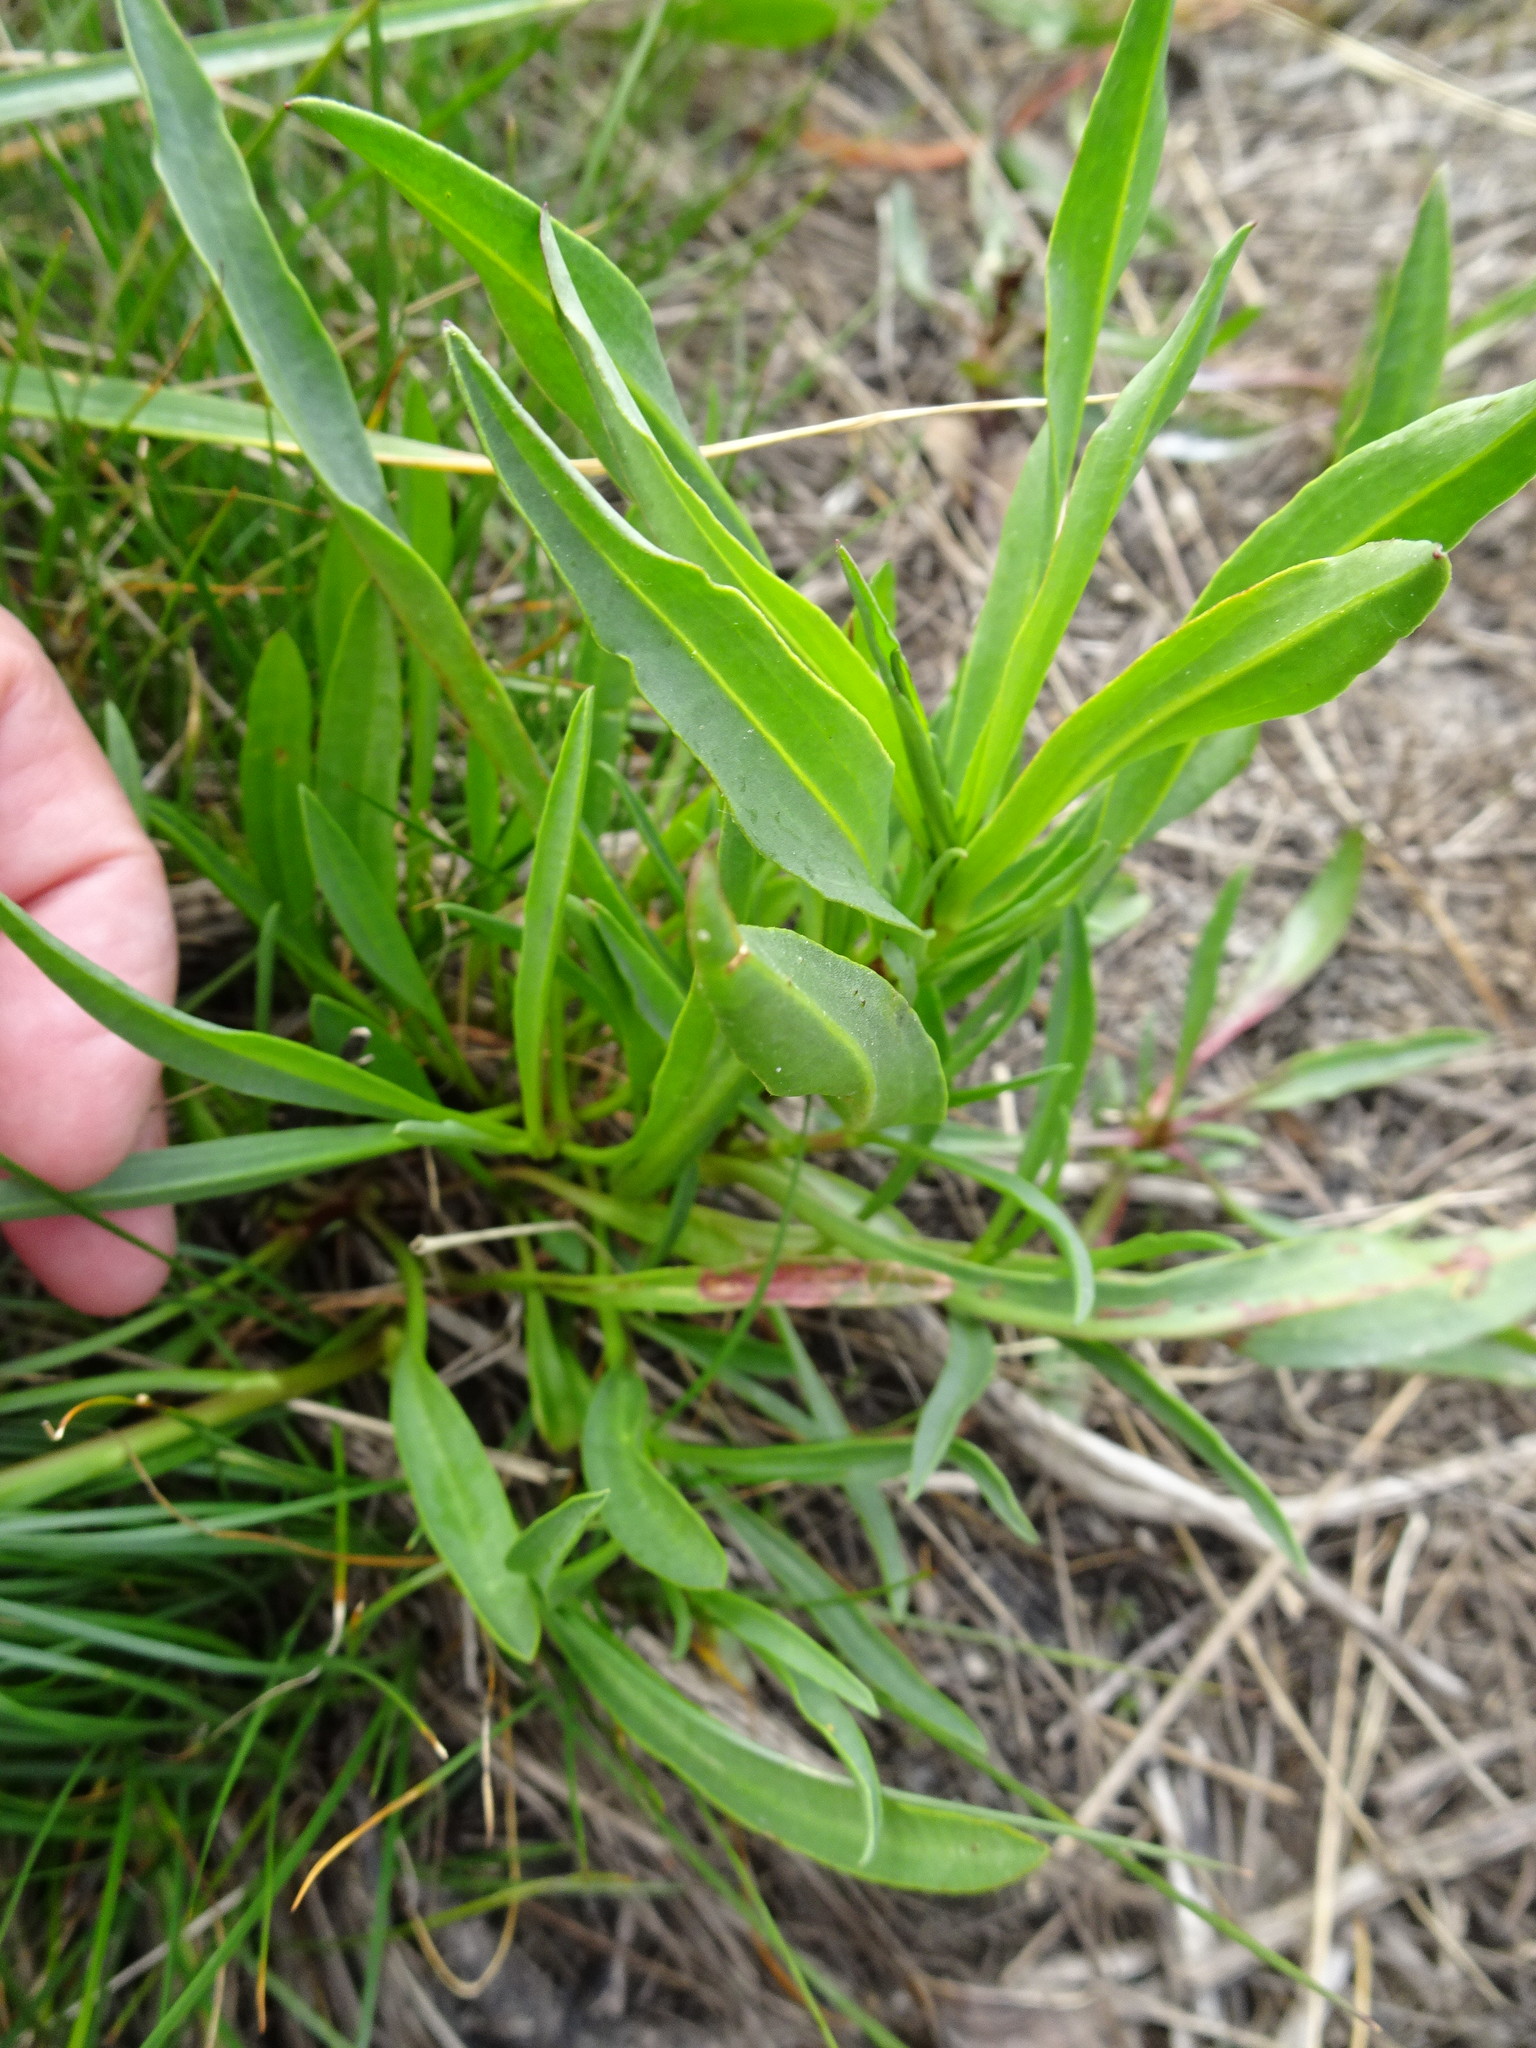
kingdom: Plantae
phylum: Tracheophyta
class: Magnoliopsida
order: Asterales
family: Asteraceae
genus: Tripolium
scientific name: Tripolium pannonicum
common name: Sea aster
